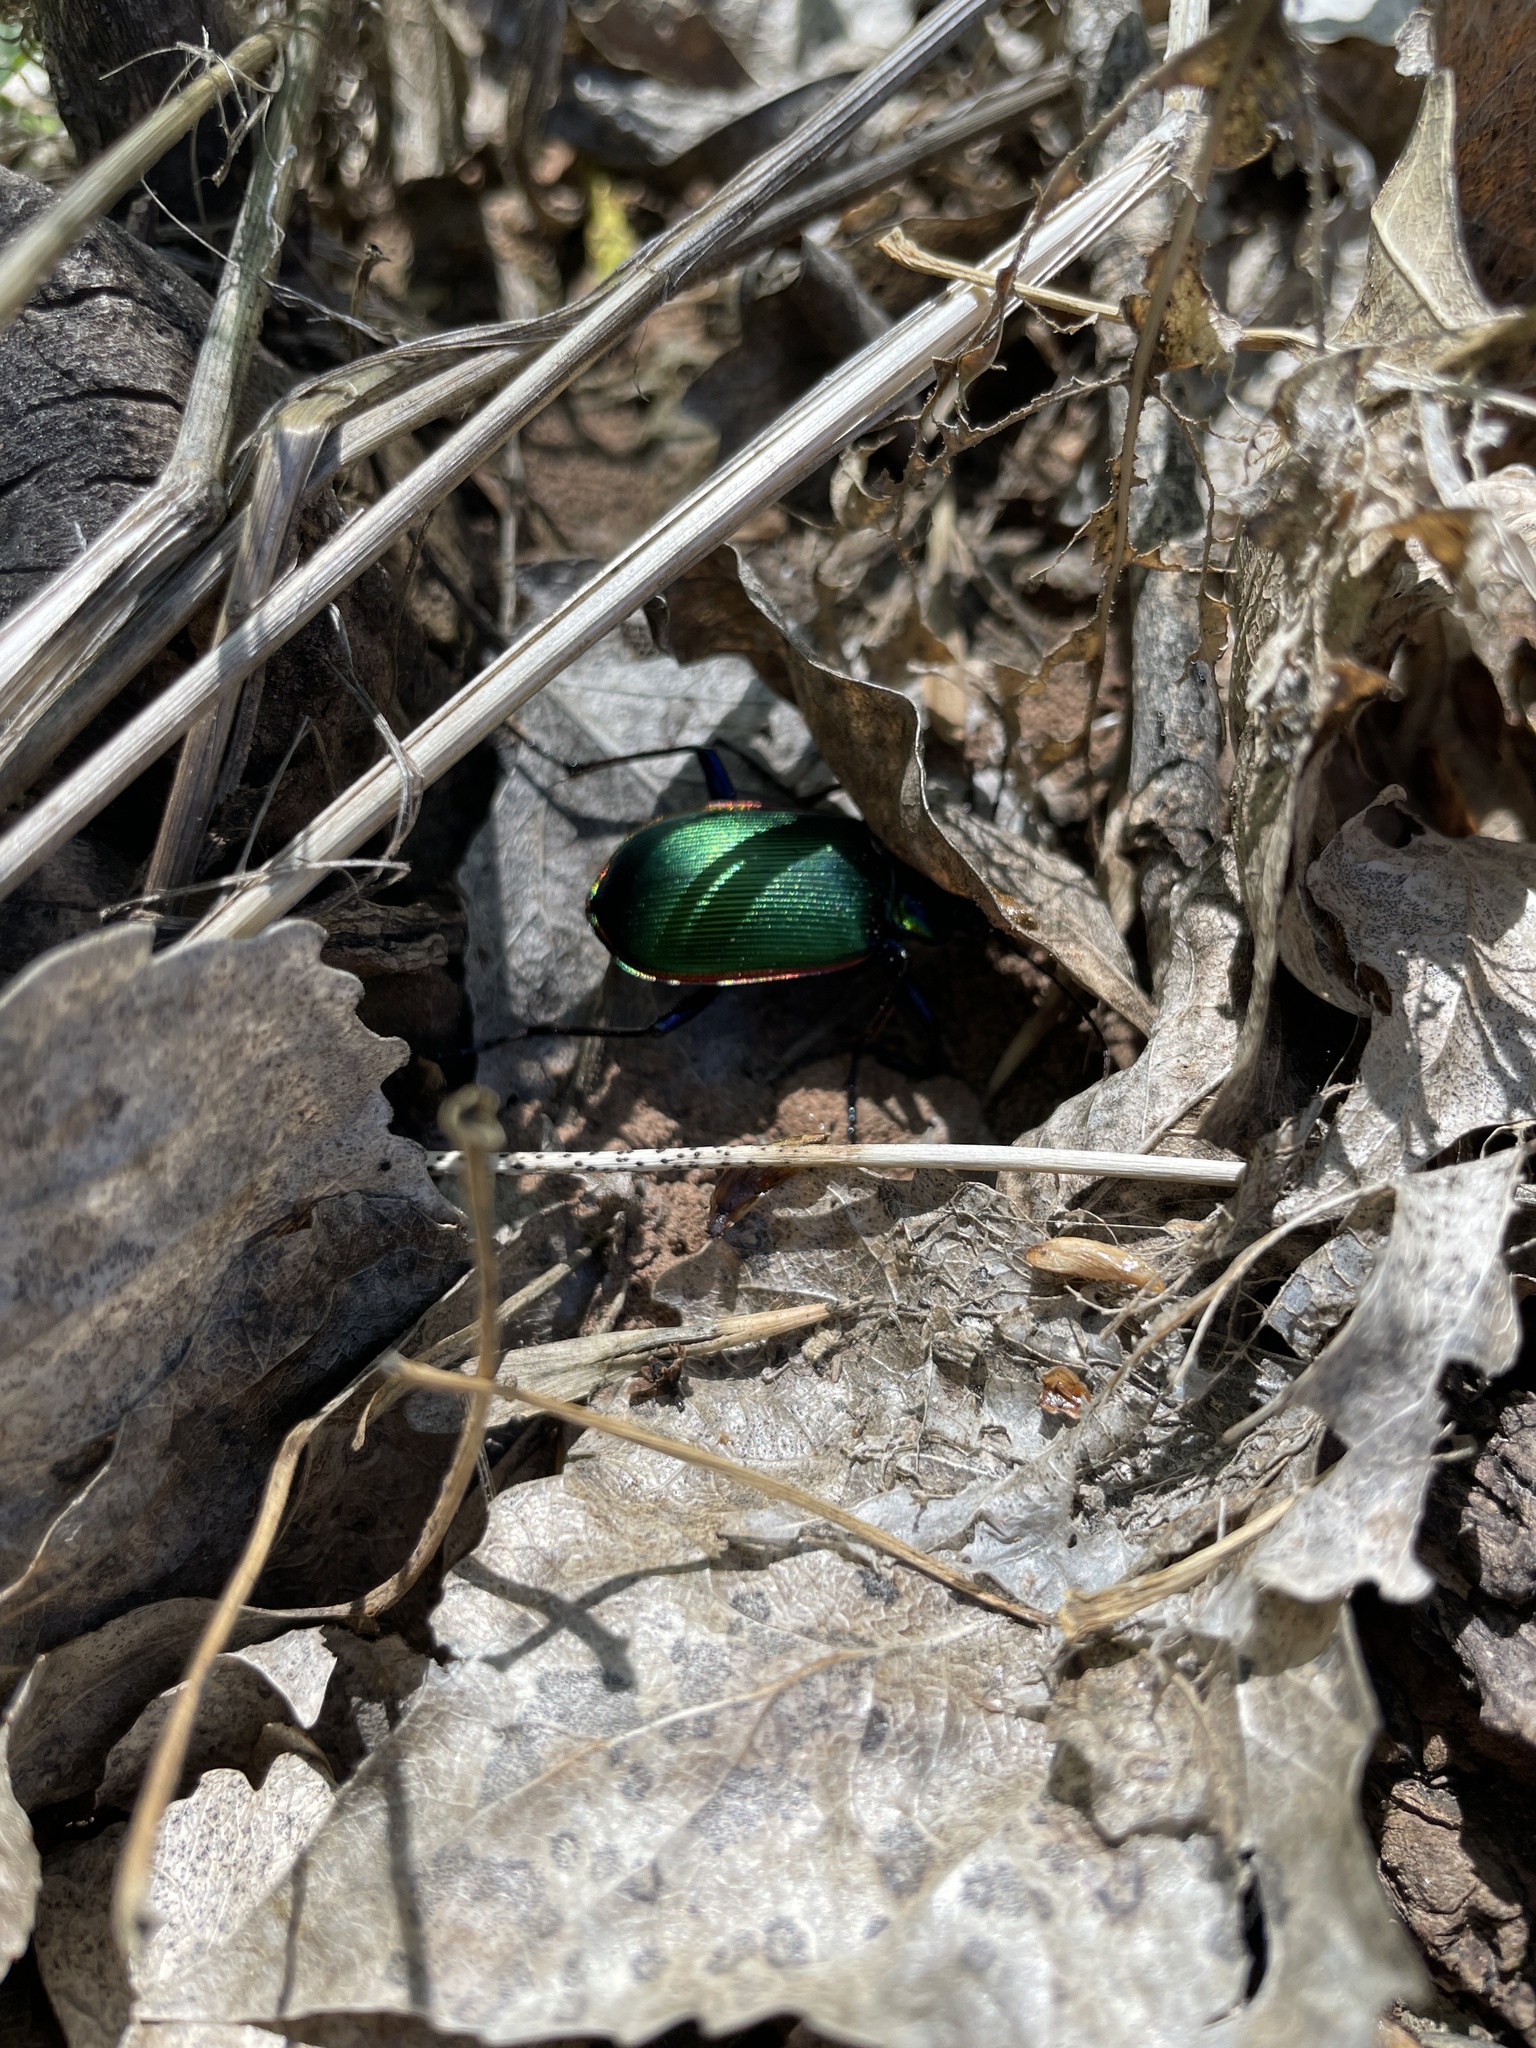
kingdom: Animalia
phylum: Arthropoda
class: Insecta
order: Coleoptera
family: Carabidae
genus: Calosoma
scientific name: Calosoma scrutator
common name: Fiery searcher beetle
